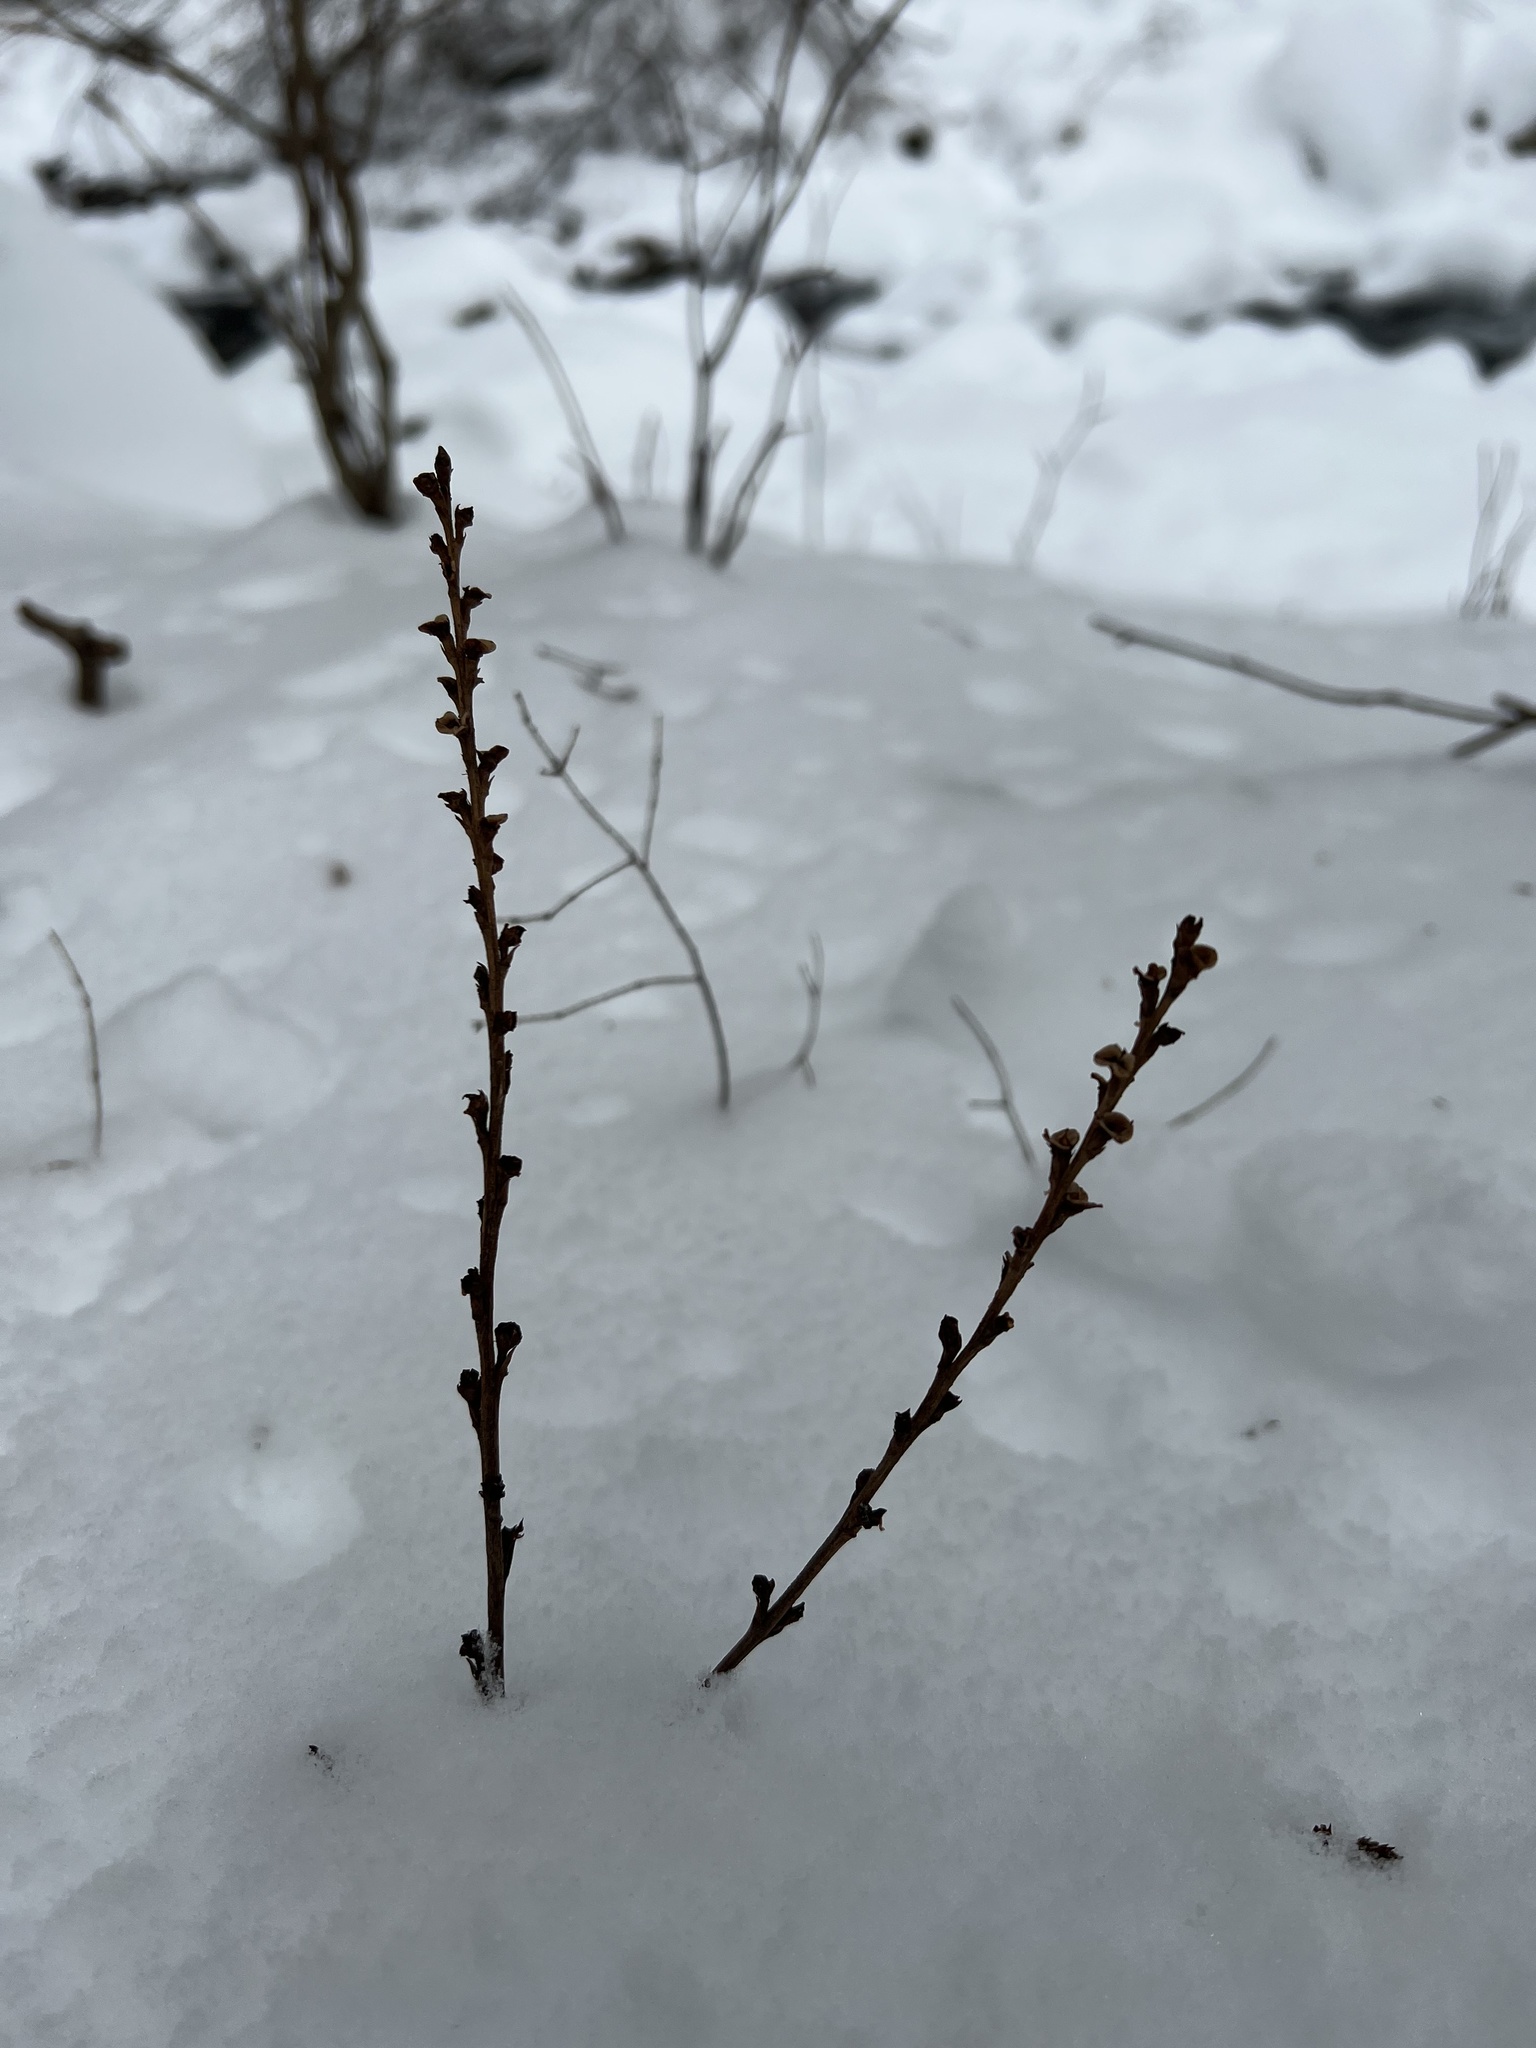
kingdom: Plantae
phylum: Tracheophyta
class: Magnoliopsida
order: Lamiales
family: Orobanchaceae
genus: Epifagus
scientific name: Epifagus virginiana
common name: Beechdrops
